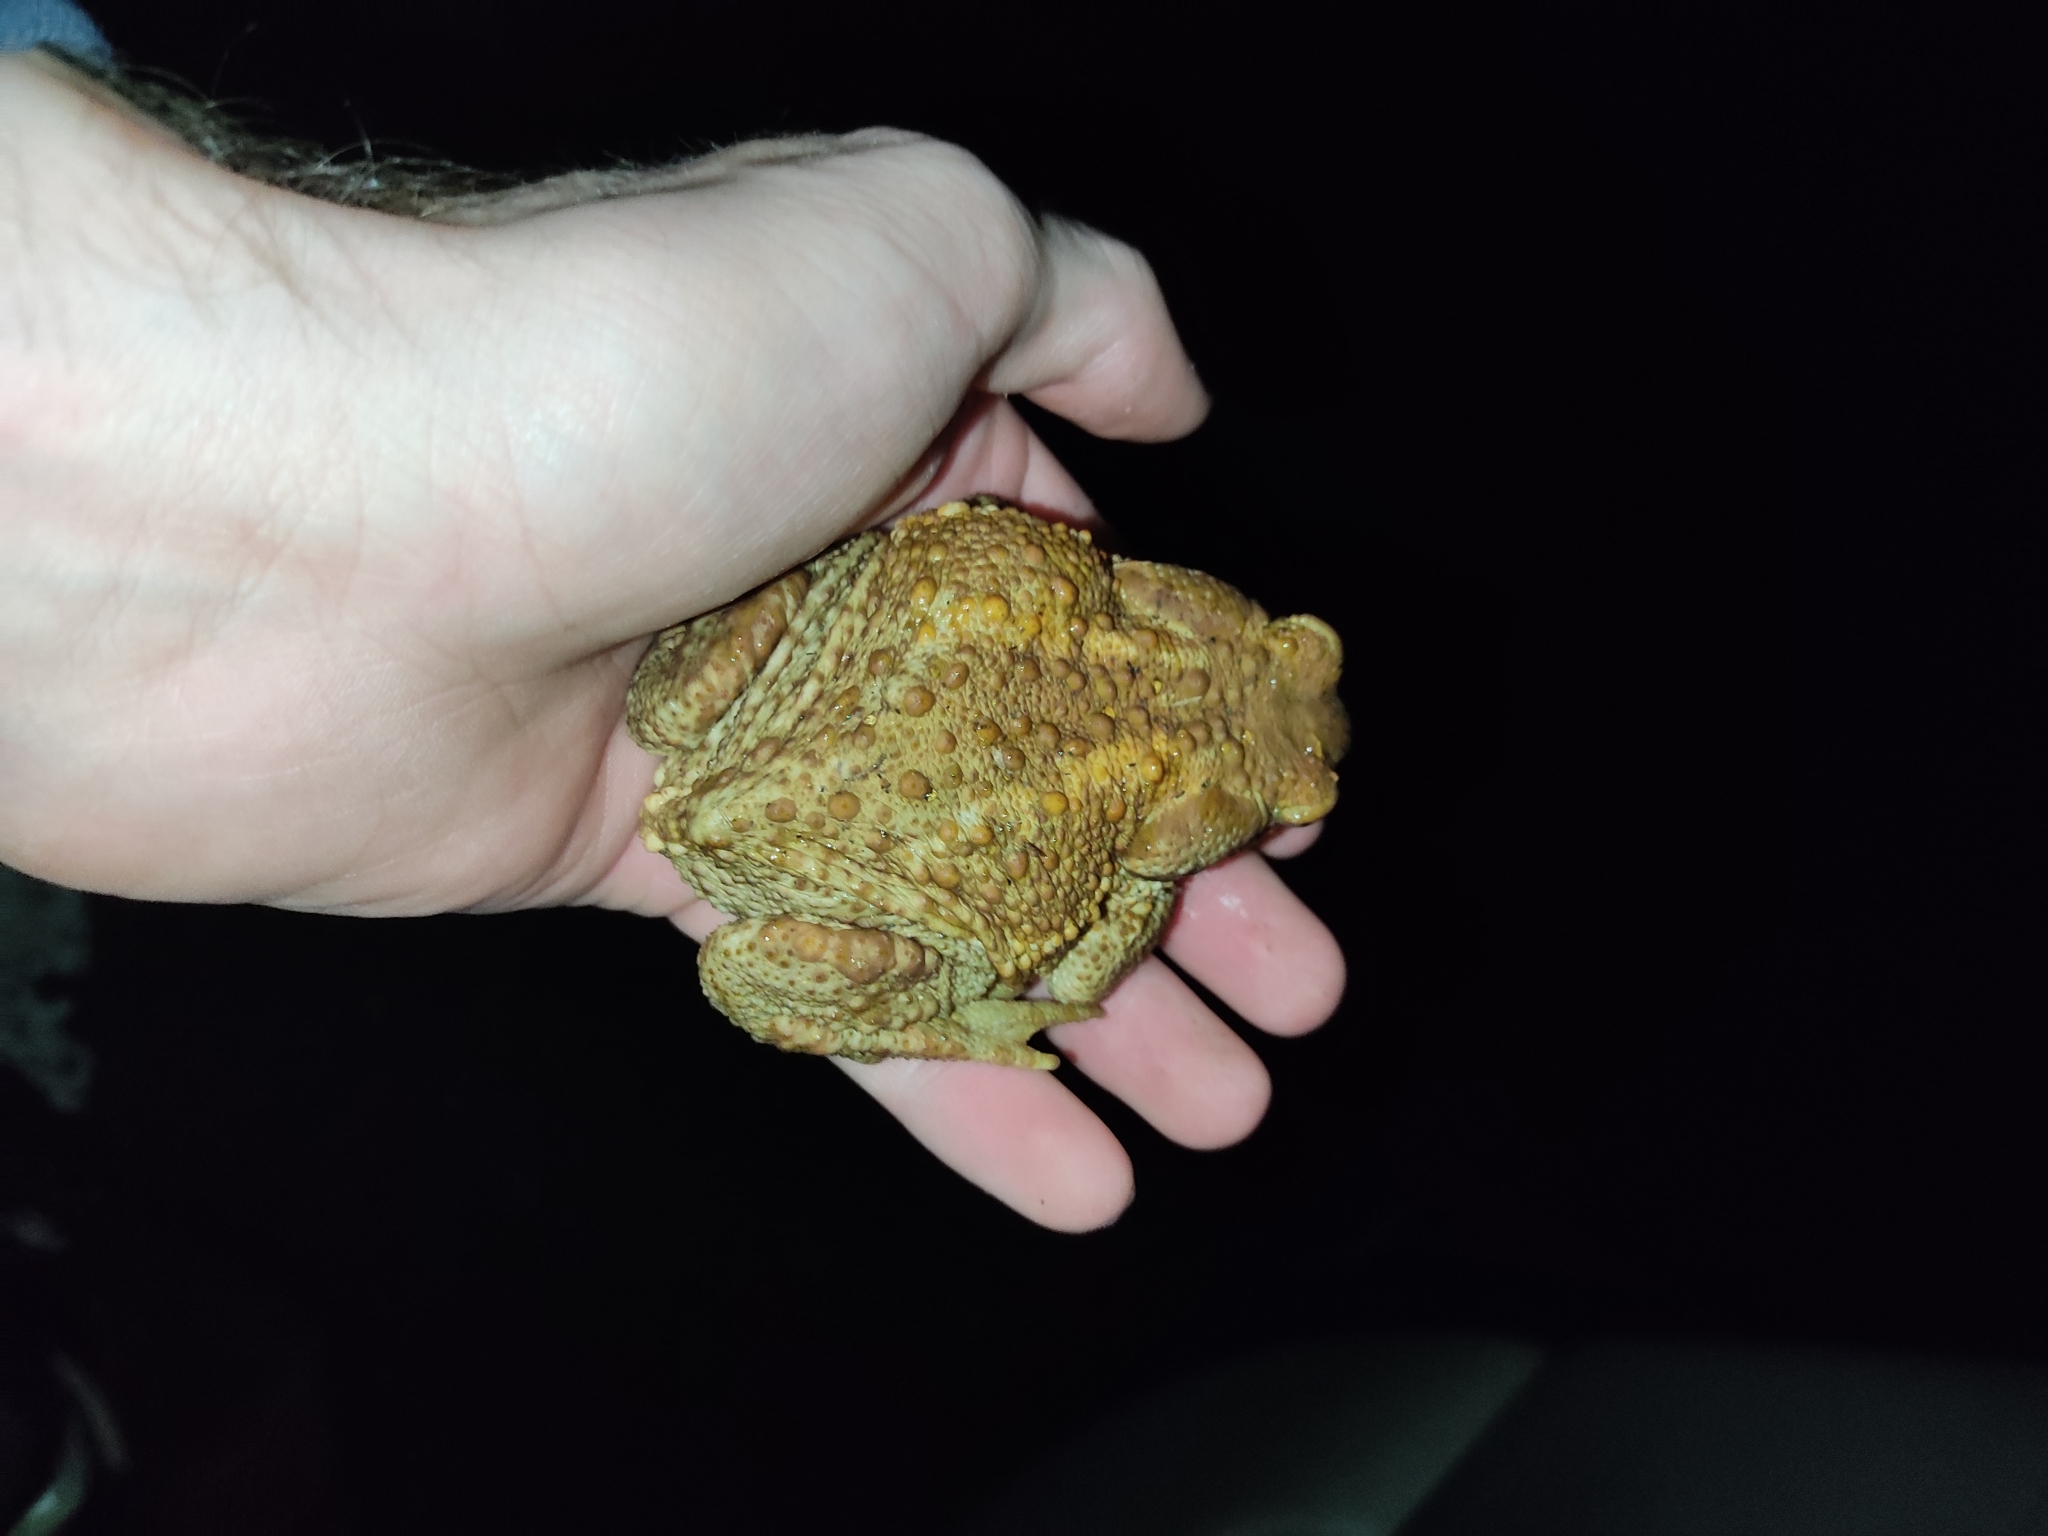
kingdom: Animalia
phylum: Chordata
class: Amphibia
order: Anura
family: Bufonidae
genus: Bufo
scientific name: Bufo spinosus
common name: Western common toad
